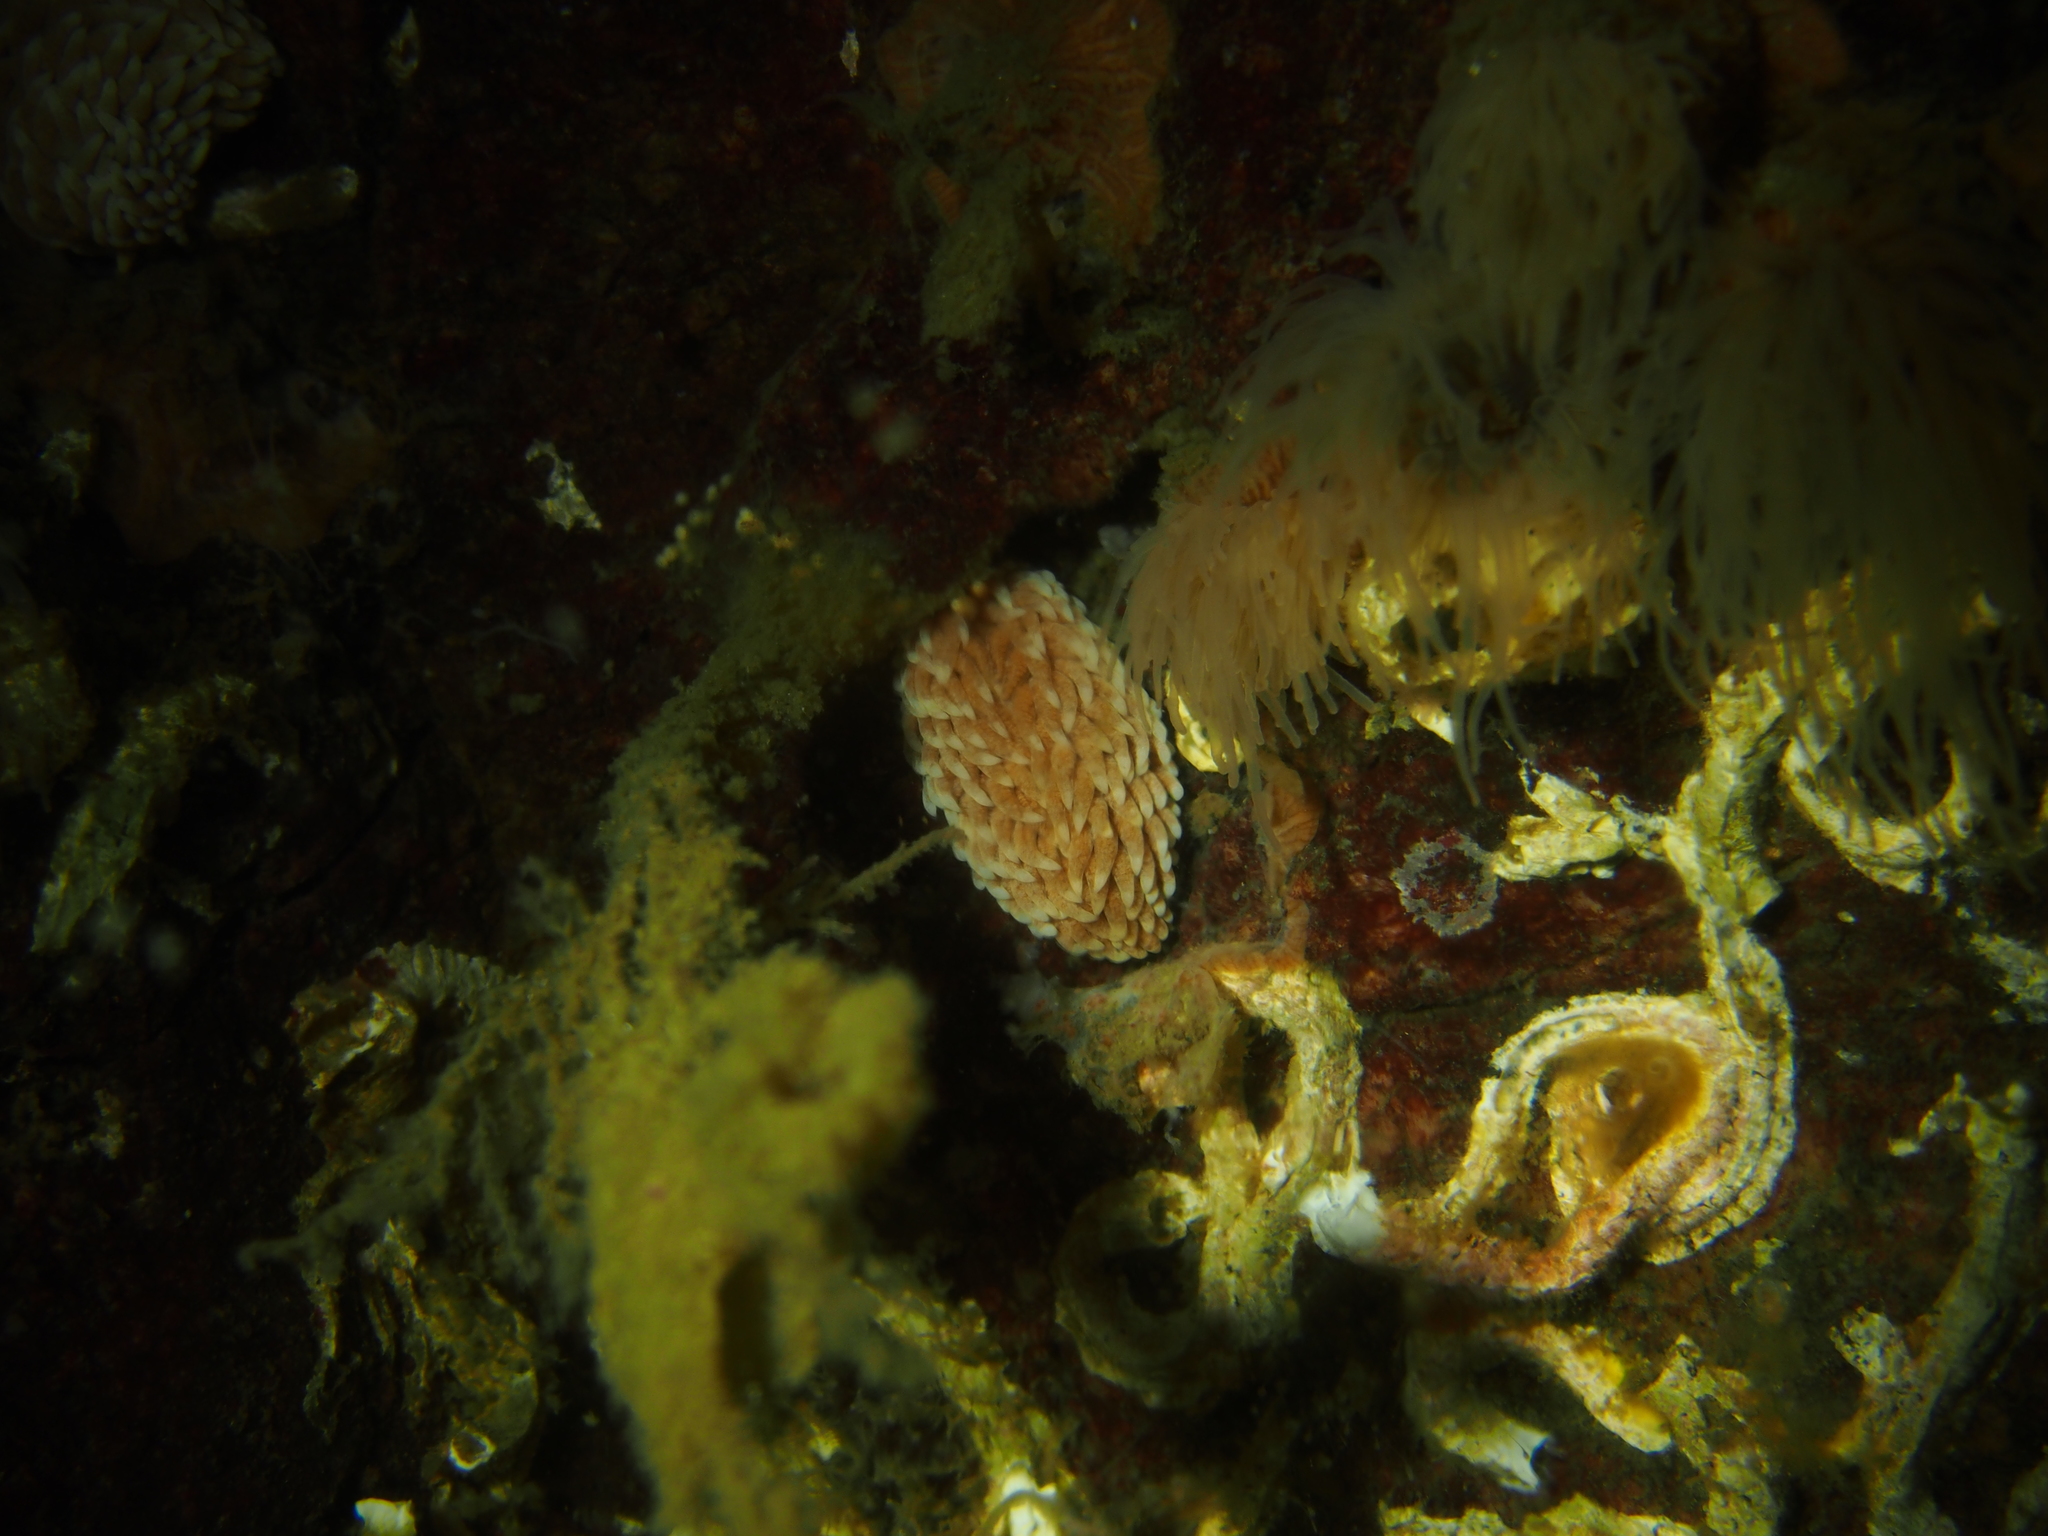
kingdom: Animalia
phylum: Mollusca
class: Gastropoda
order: Nudibranchia
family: Aeolidiidae
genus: Aeolidiella
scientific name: Aeolidiella glauca
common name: Orange-brown aeolid
